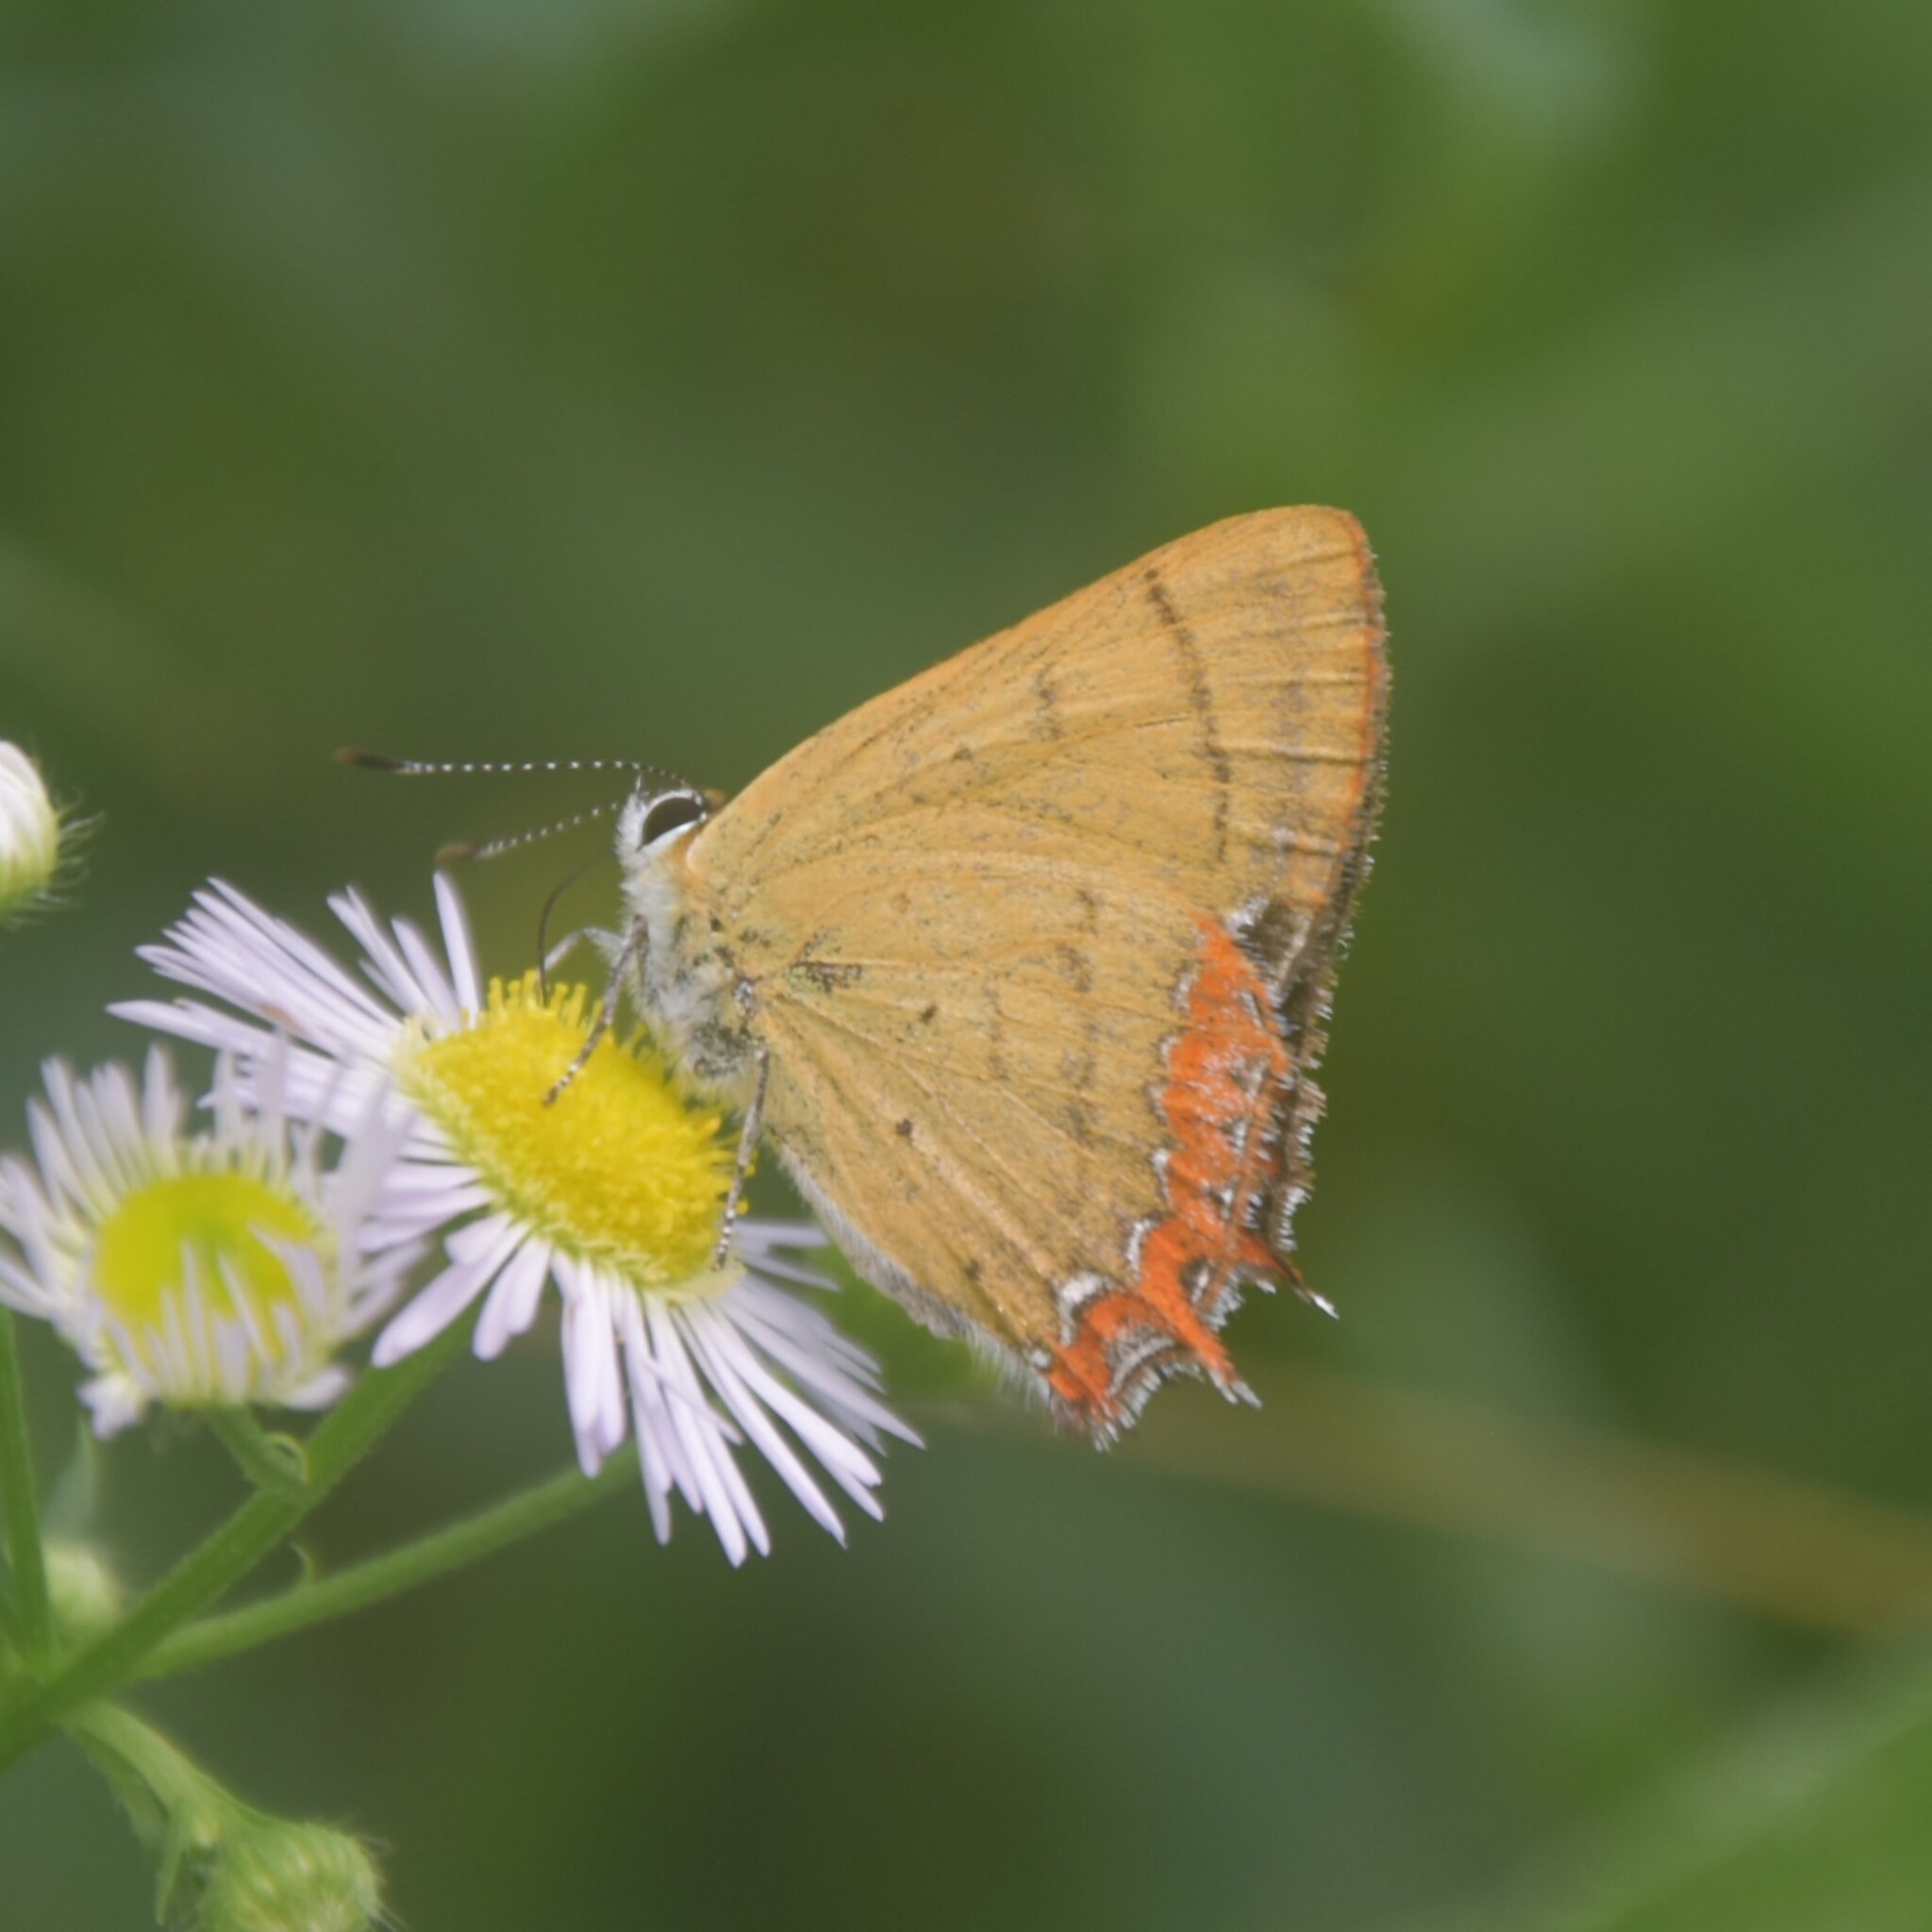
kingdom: Animalia
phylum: Arthropoda
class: Insecta
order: Lepidoptera
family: Lycaenidae
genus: Heliophorus
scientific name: Heliophorus
